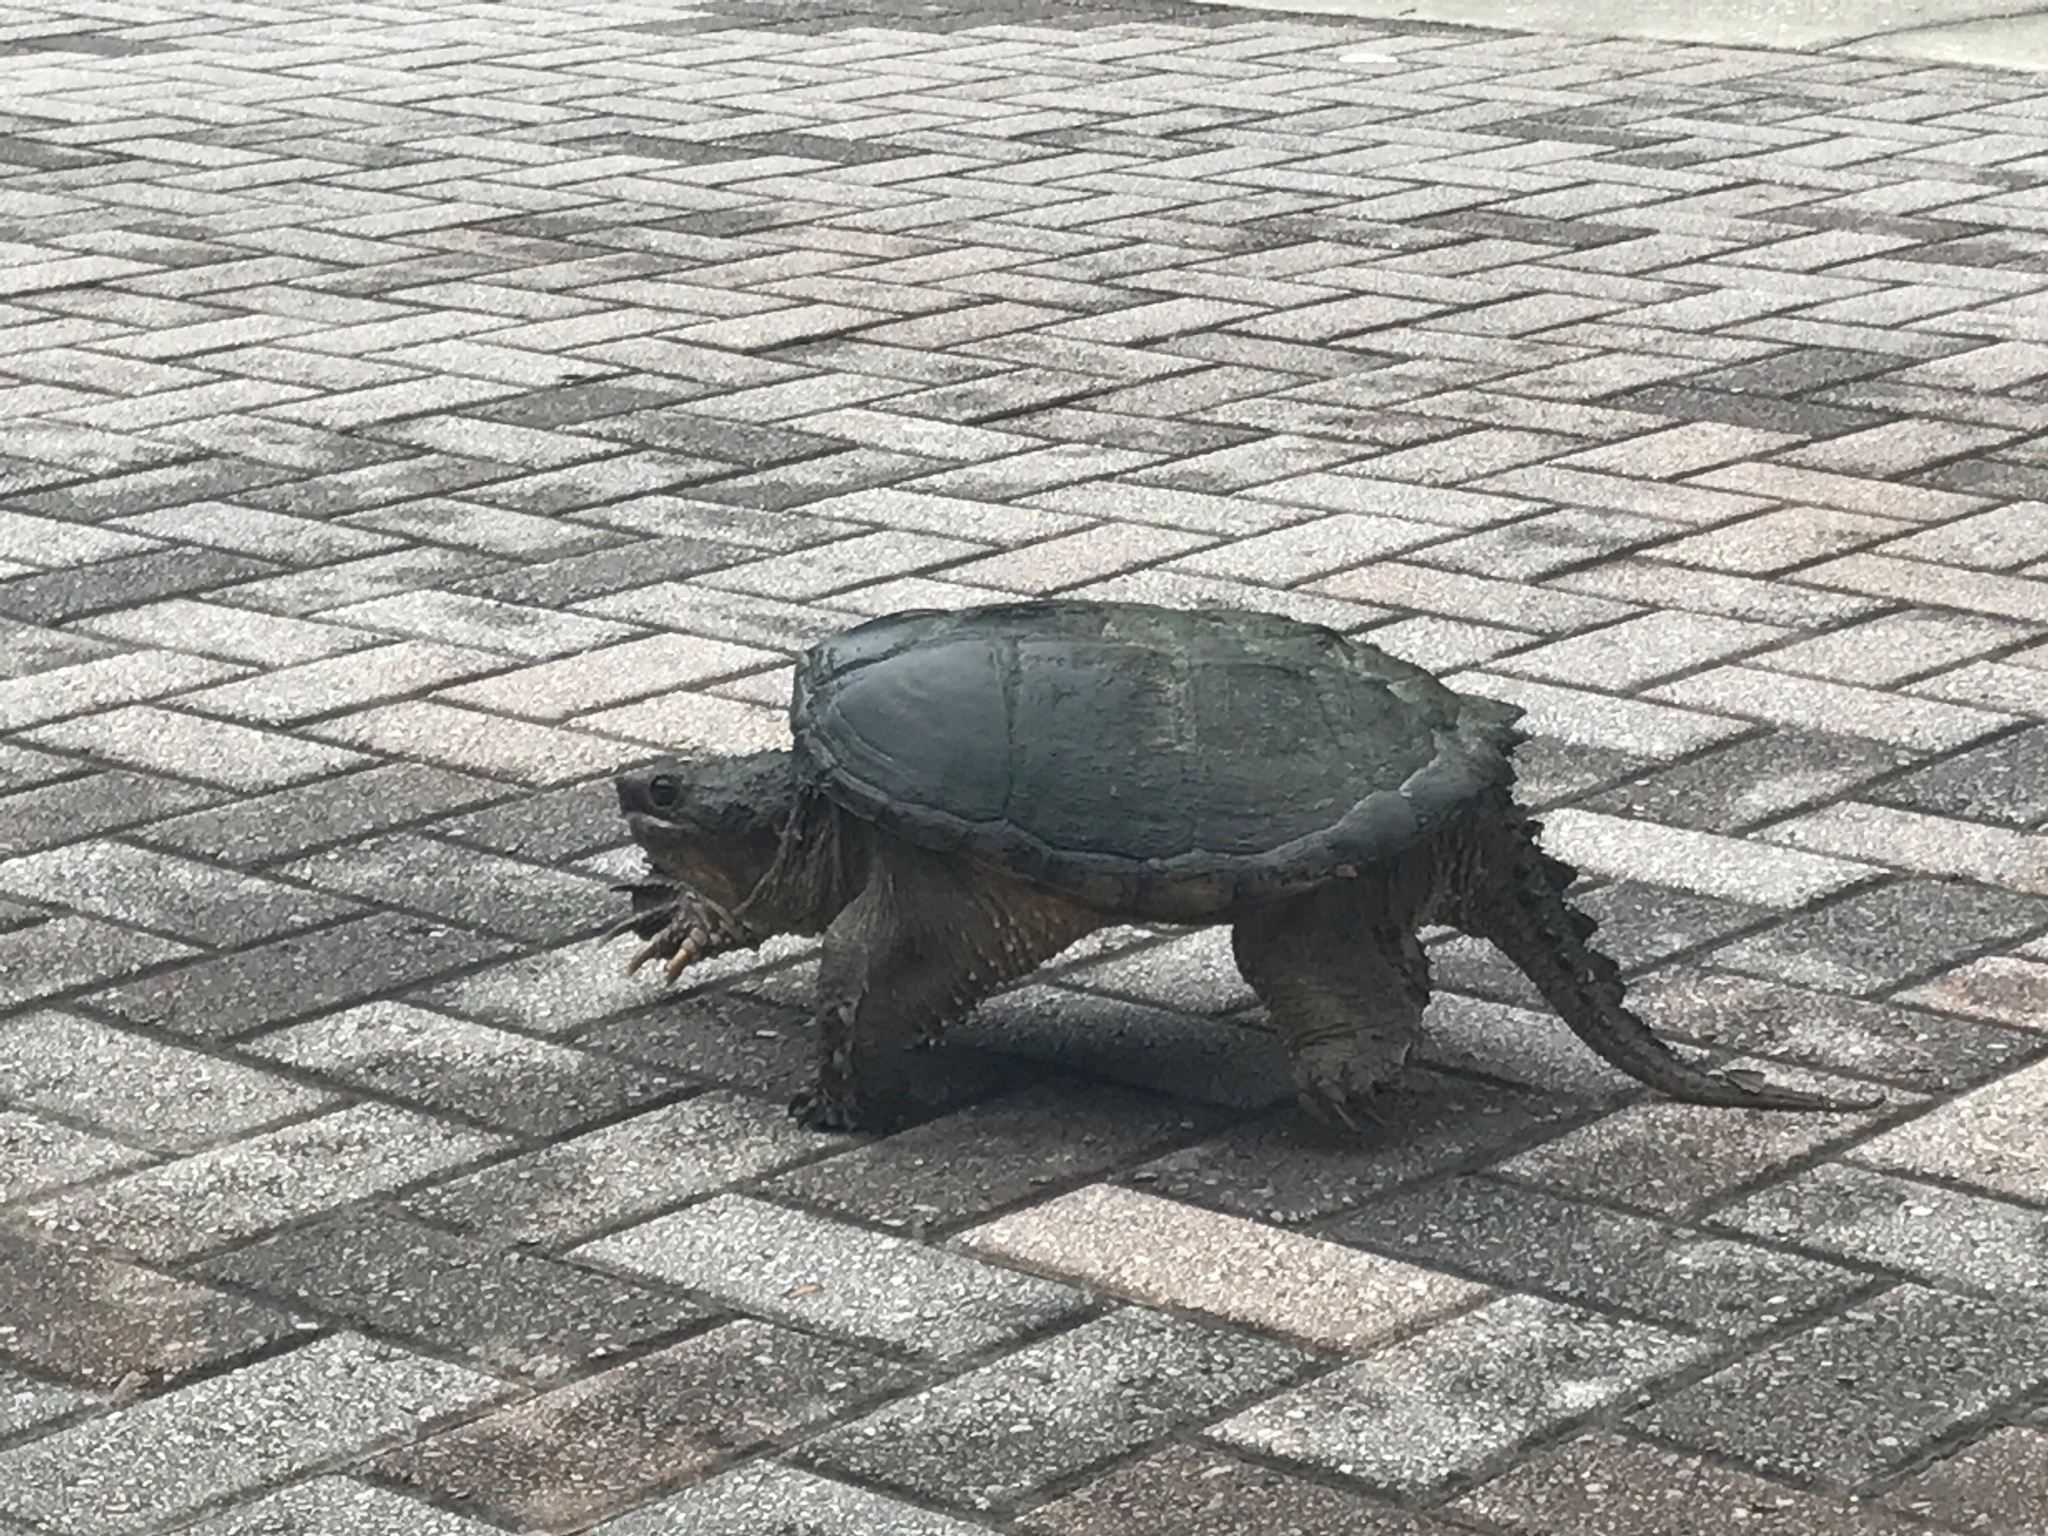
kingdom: Animalia
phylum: Chordata
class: Testudines
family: Chelydridae
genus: Chelydra
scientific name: Chelydra serpentina
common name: Common snapping turtle
